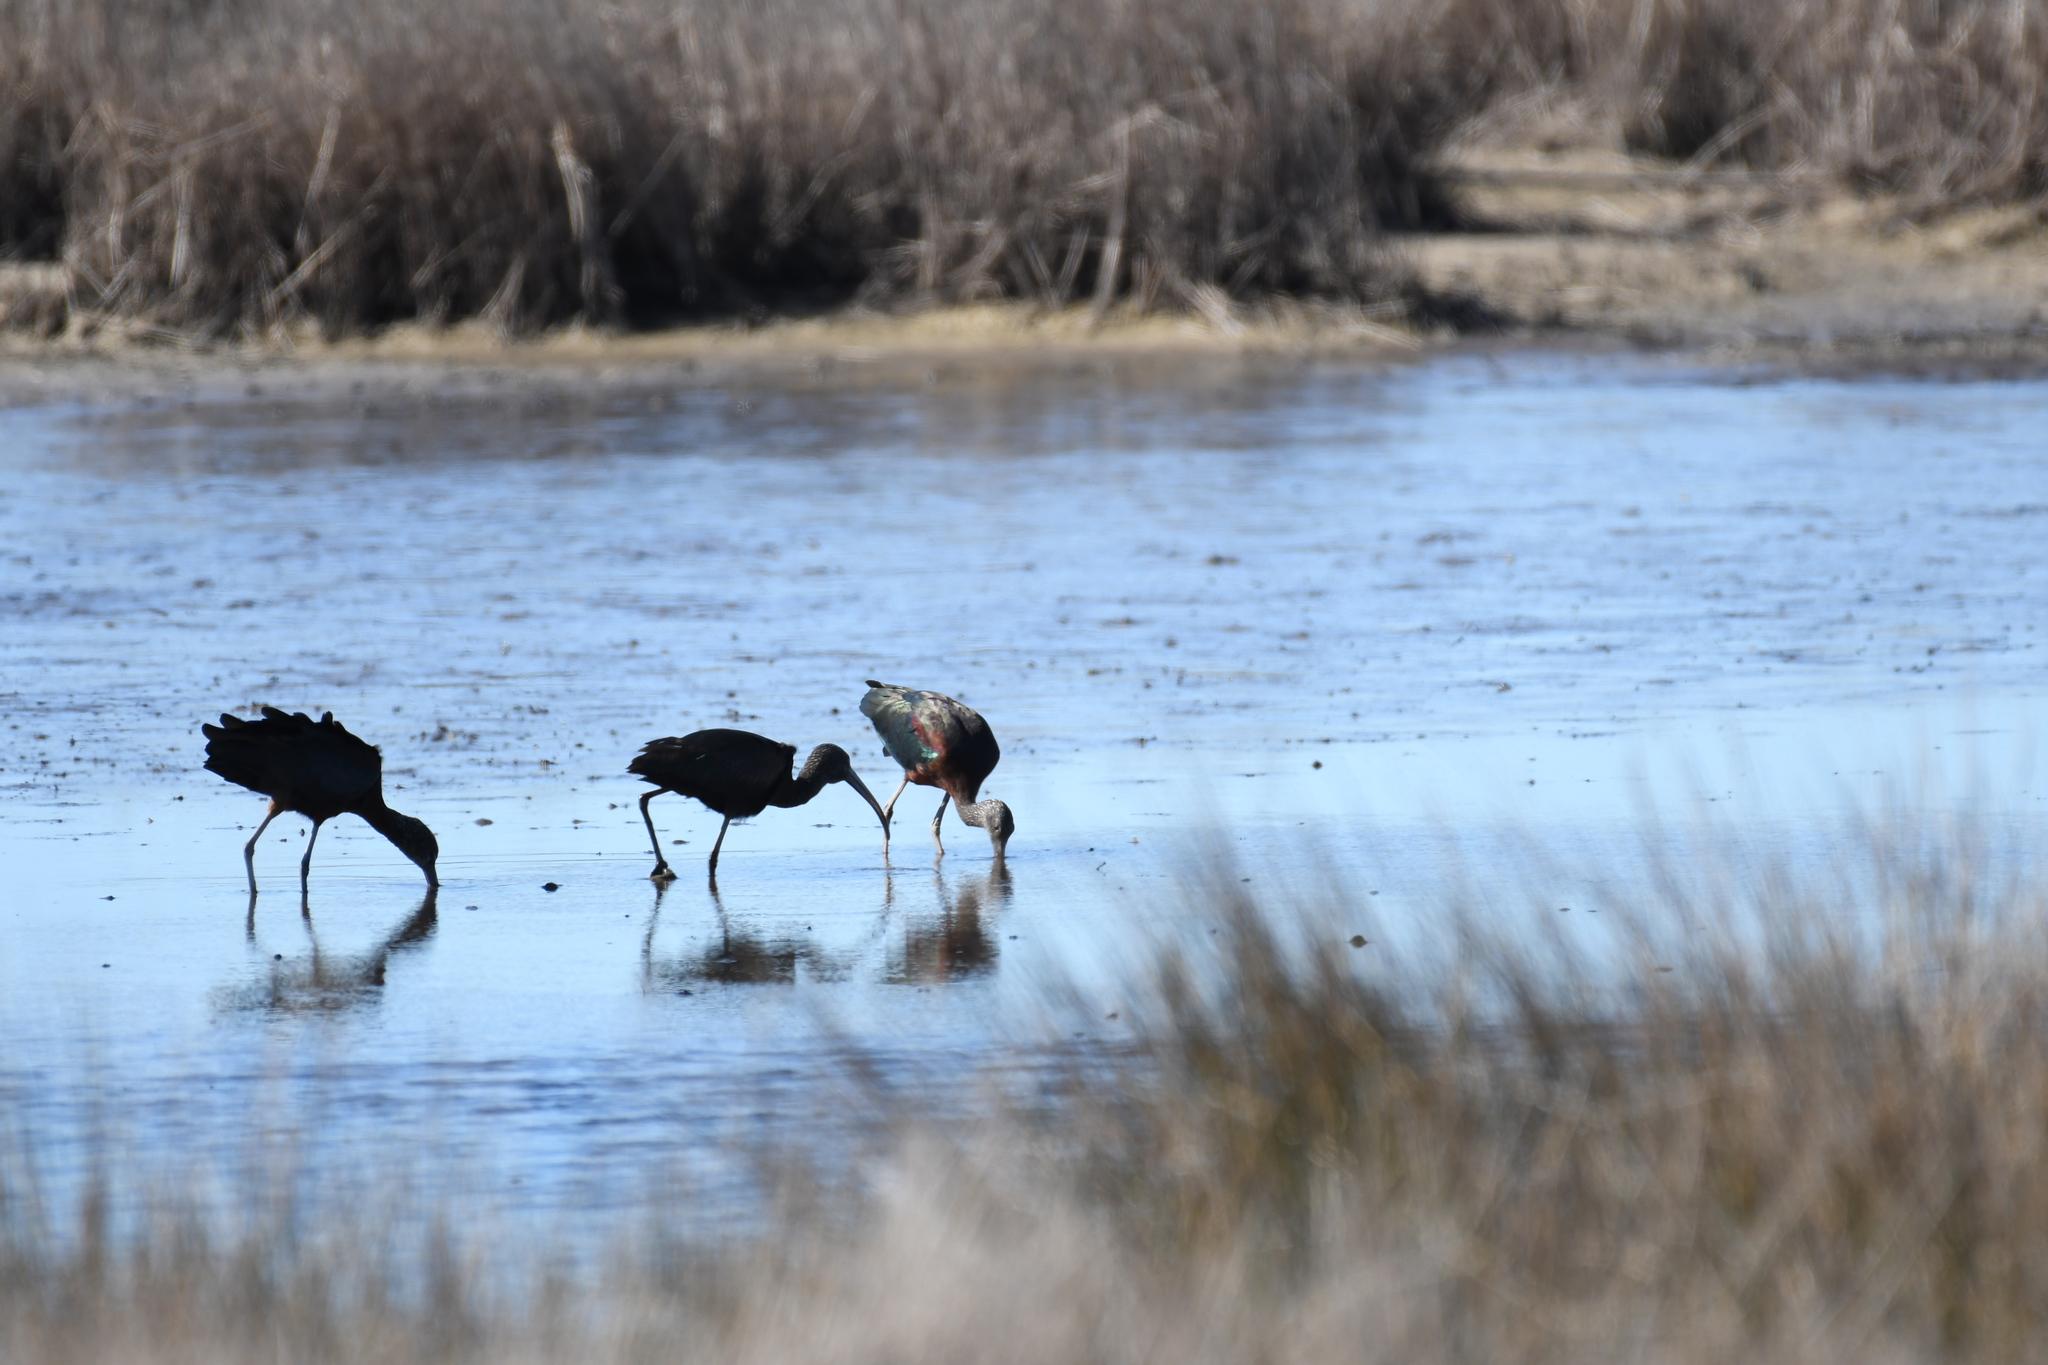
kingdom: Animalia
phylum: Chordata
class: Aves
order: Pelecaniformes
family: Threskiornithidae
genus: Plegadis
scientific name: Plegadis falcinellus
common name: Glossy ibis
